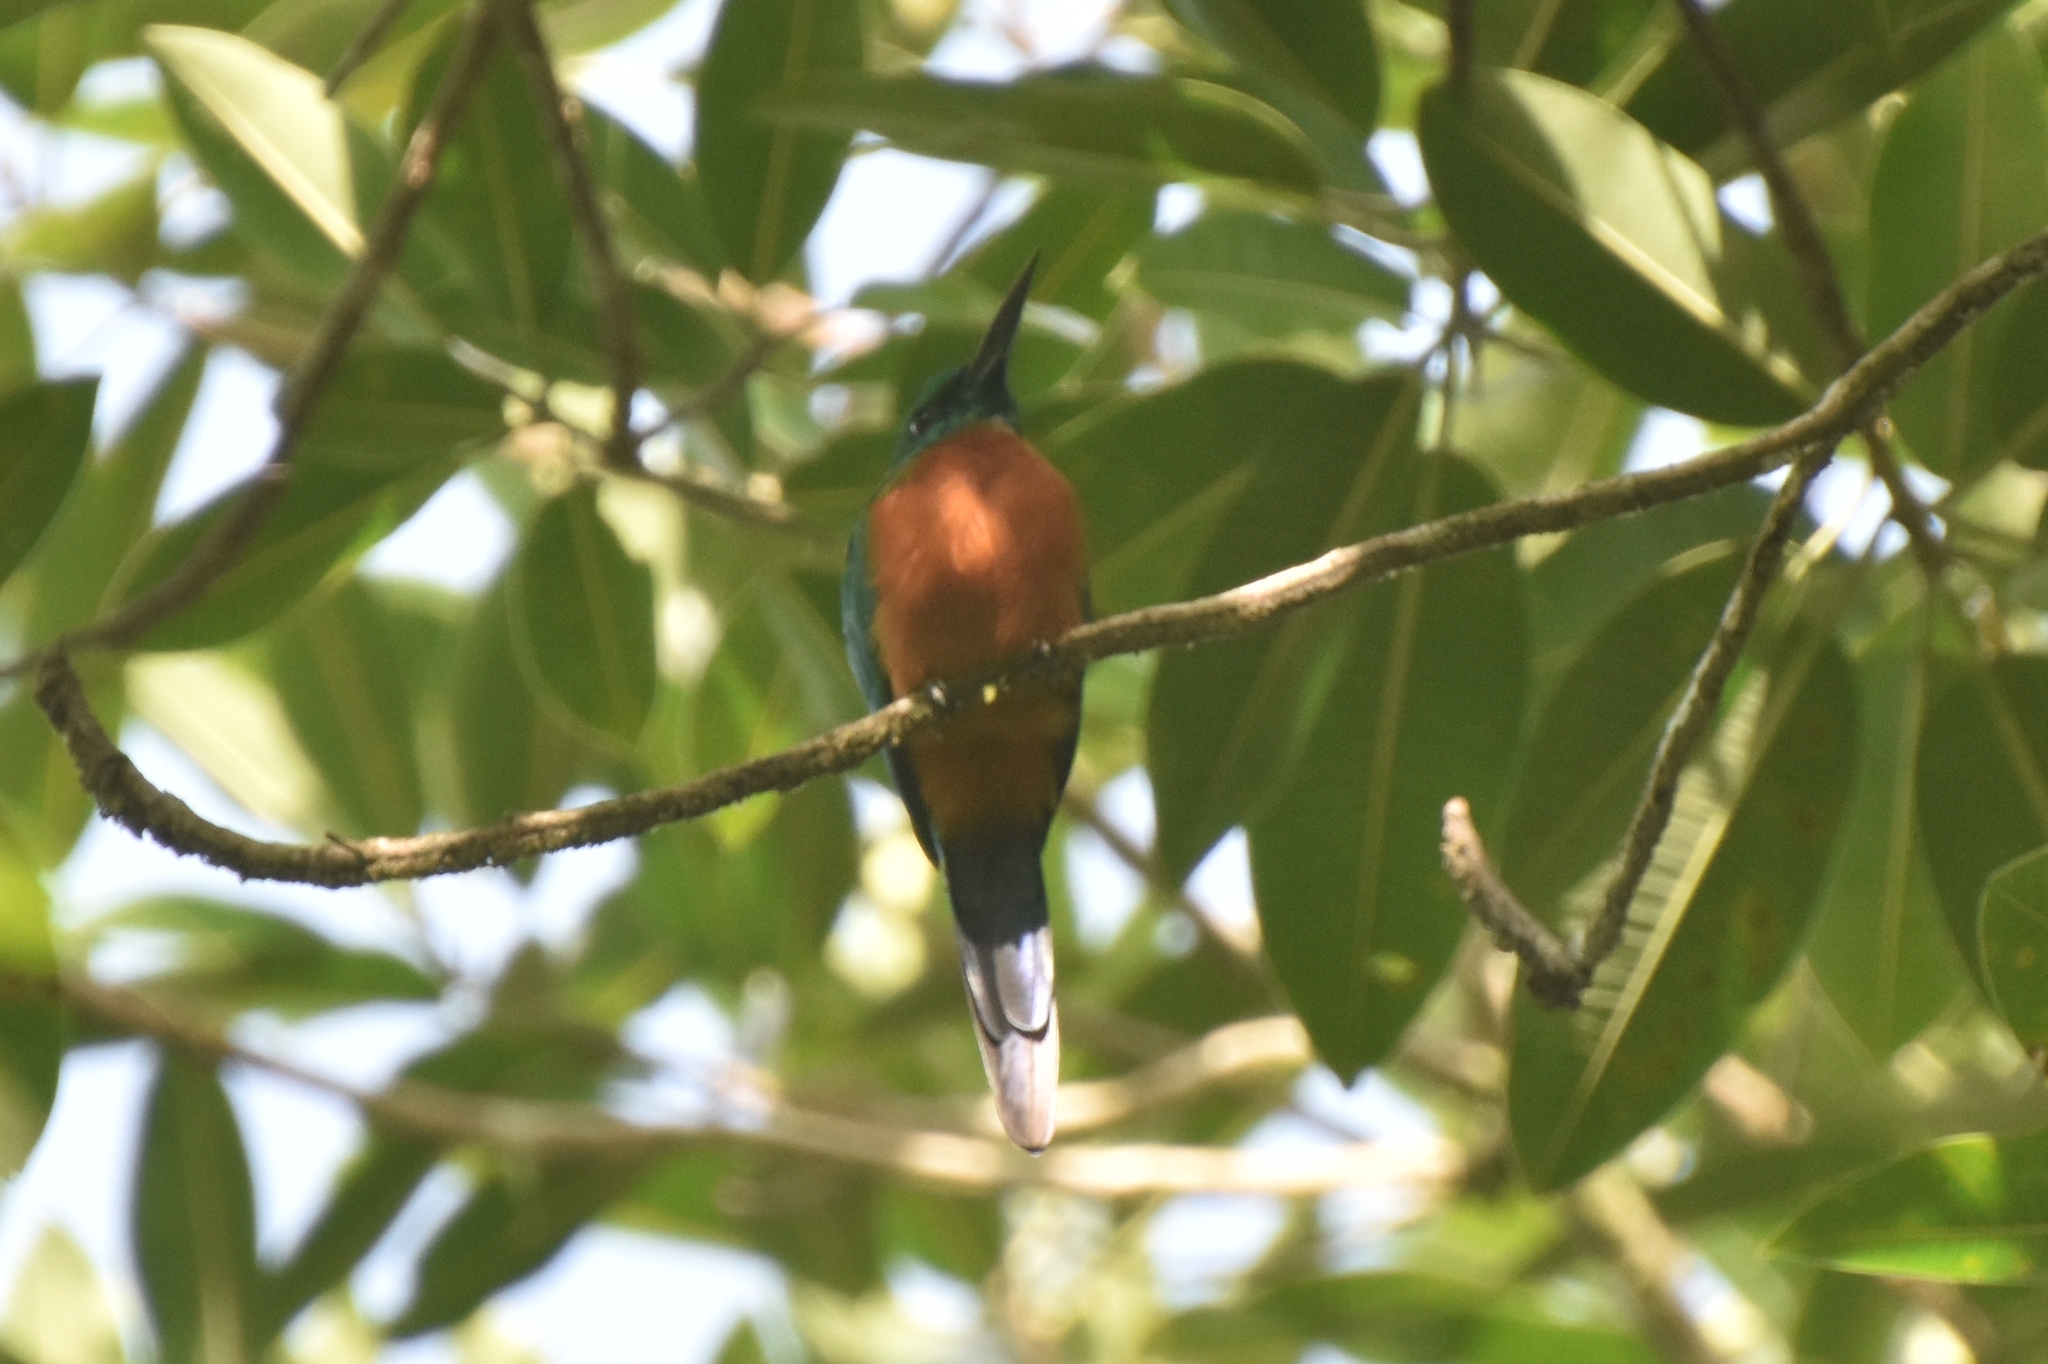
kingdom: Animalia
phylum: Chordata
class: Aves
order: Piciformes
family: Galbulidae
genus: Jacamerops
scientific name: Jacamerops aureus
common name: Great jacamar
